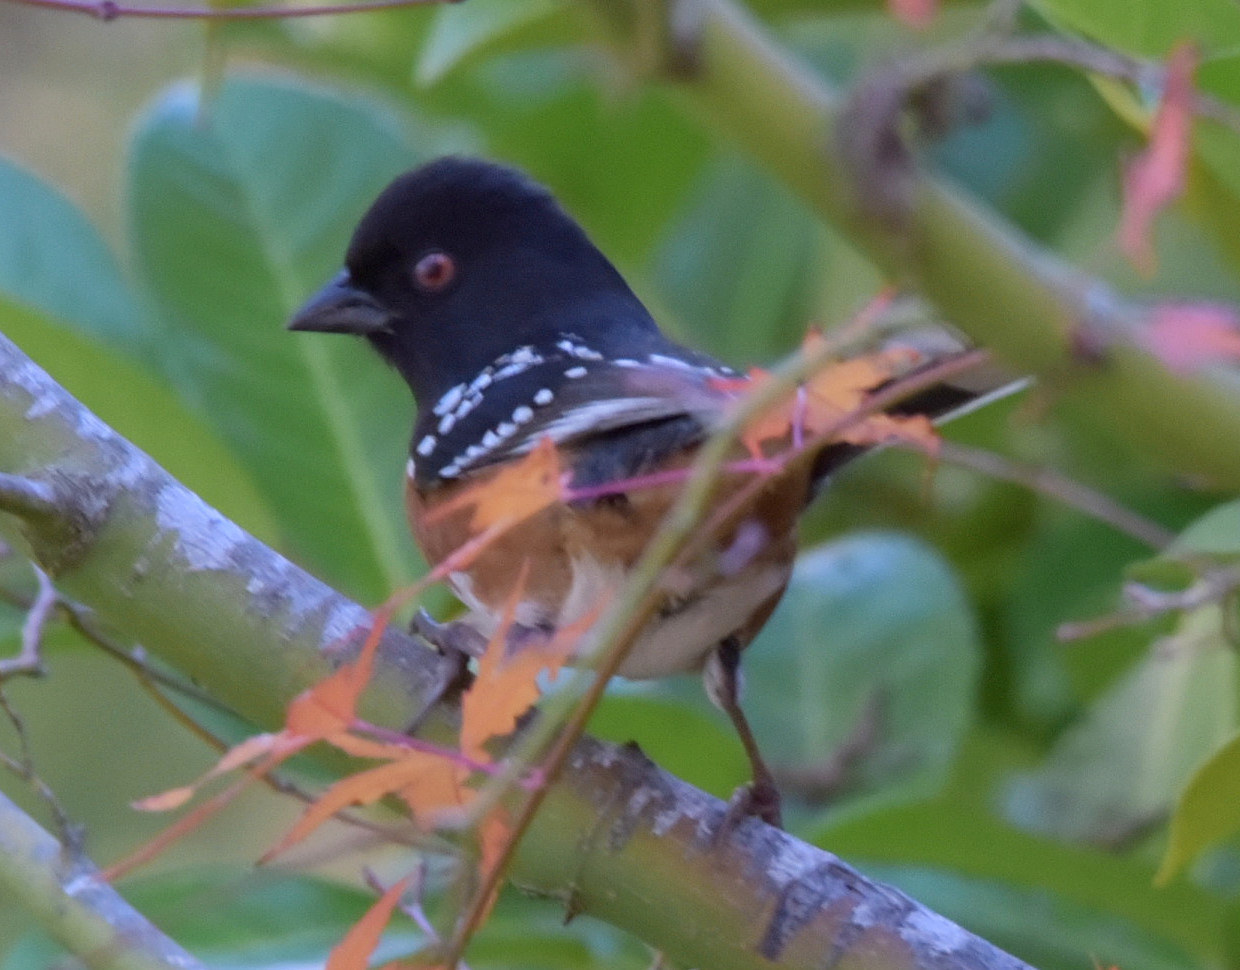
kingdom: Animalia
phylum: Chordata
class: Aves
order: Passeriformes
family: Passerellidae
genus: Pipilo
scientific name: Pipilo maculatus
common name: Spotted towhee
